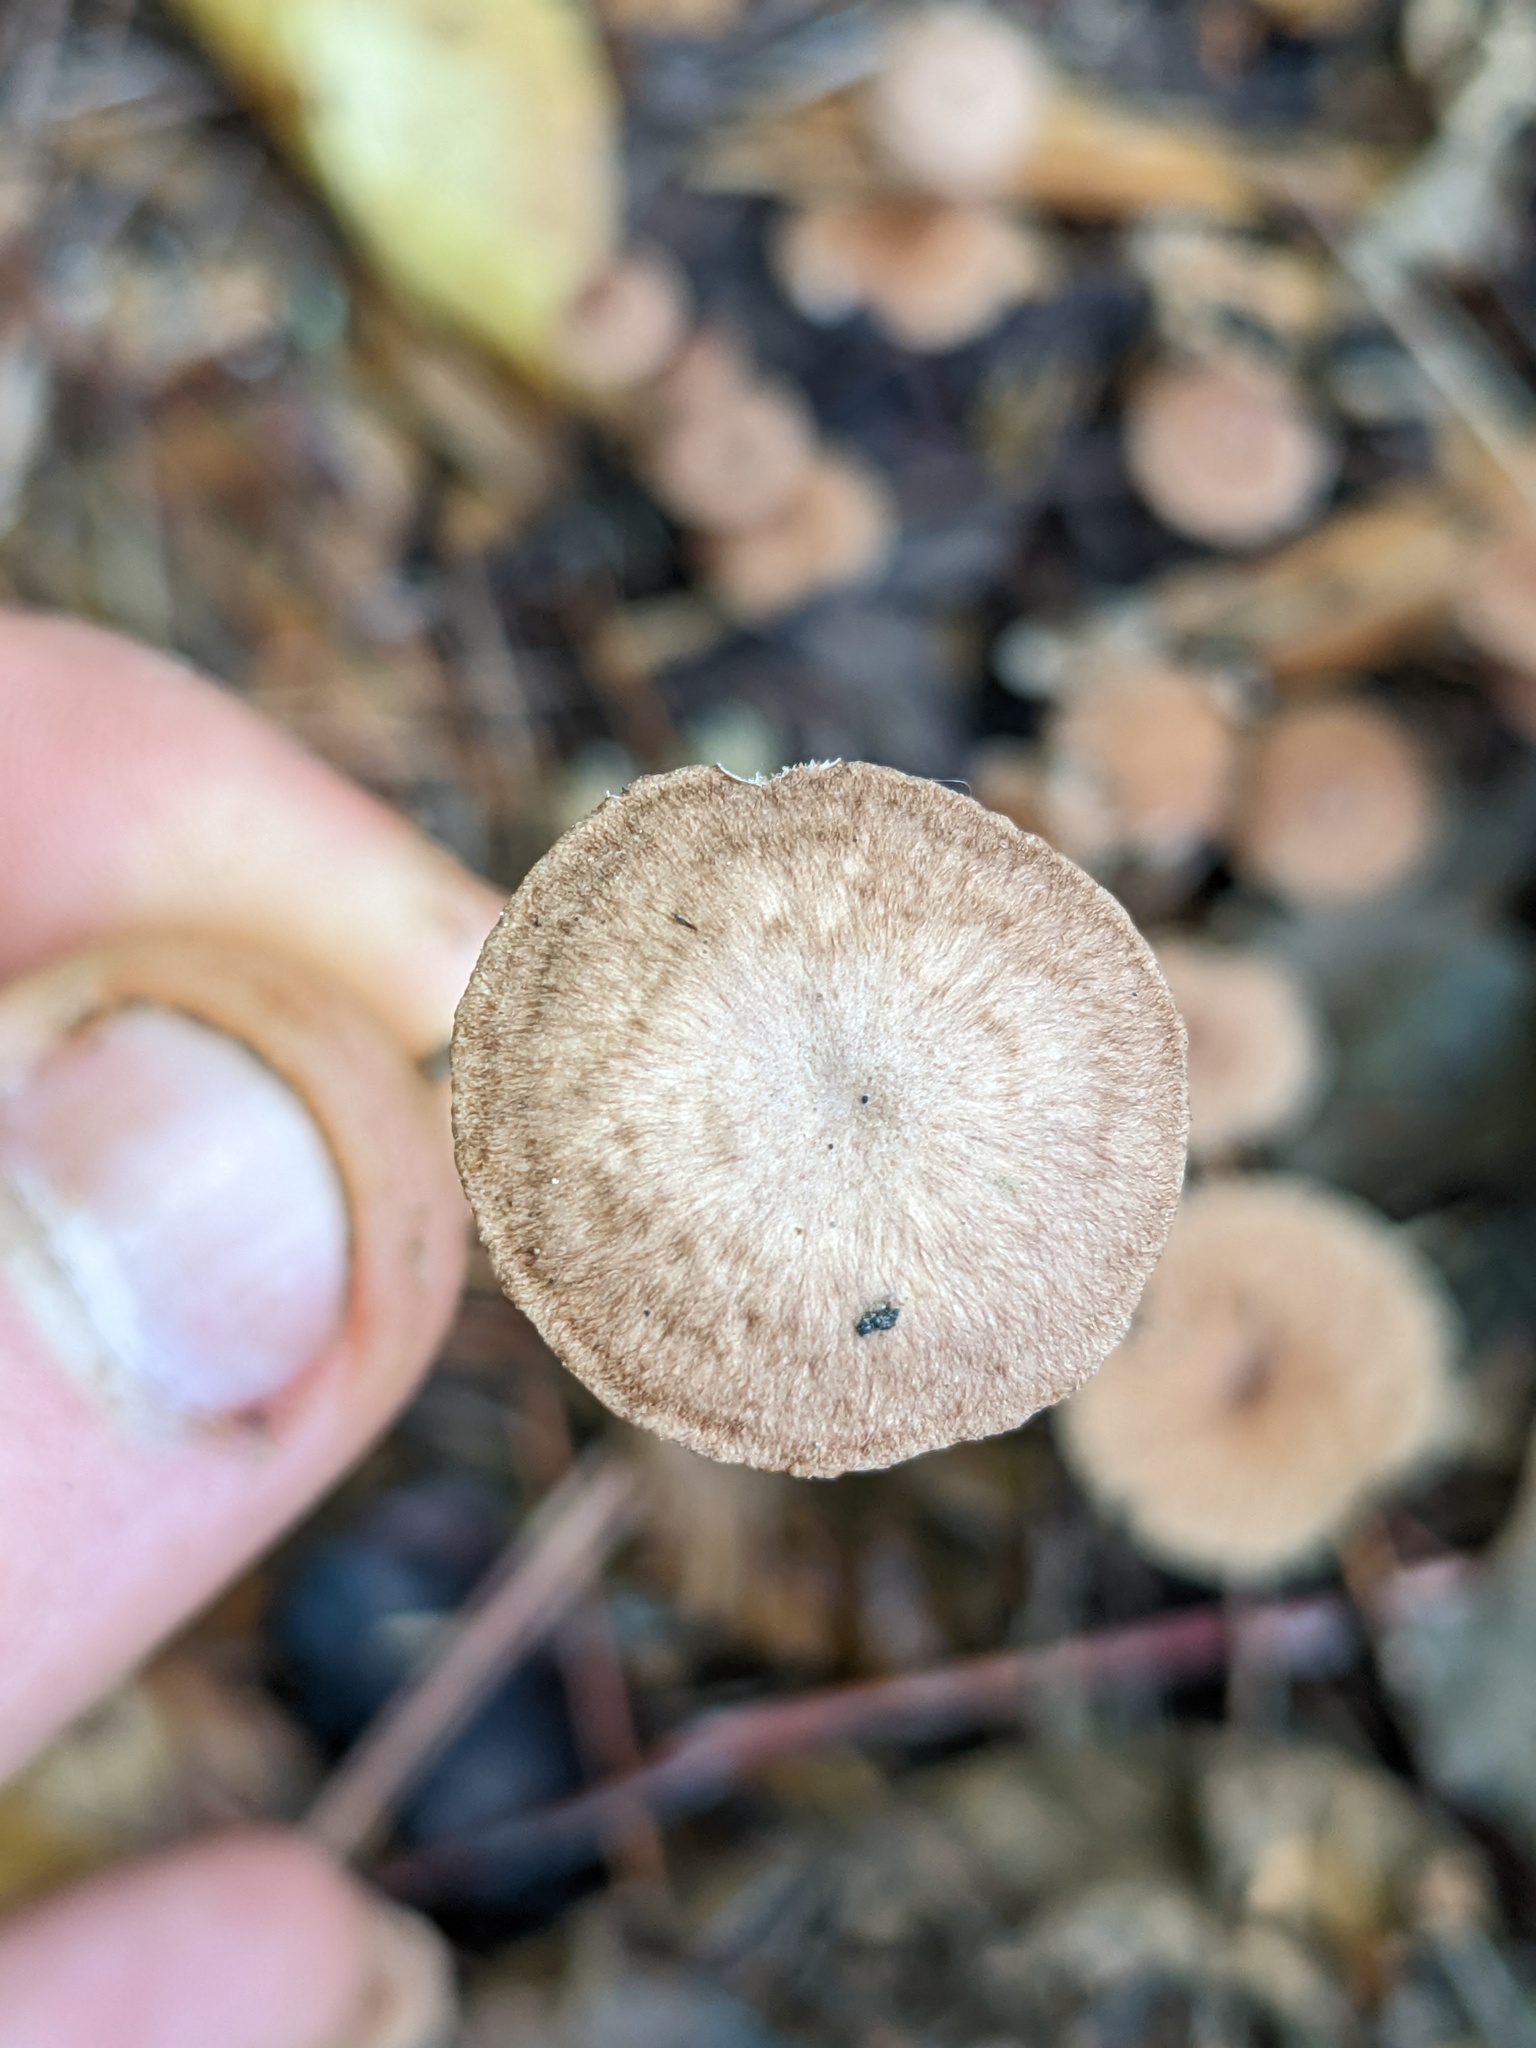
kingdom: Fungi
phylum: Basidiomycota
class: Agaricomycetes
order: Agaricales
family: Omphalotaceae
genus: Collybiopsis
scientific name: Collybiopsis subpruinosa
